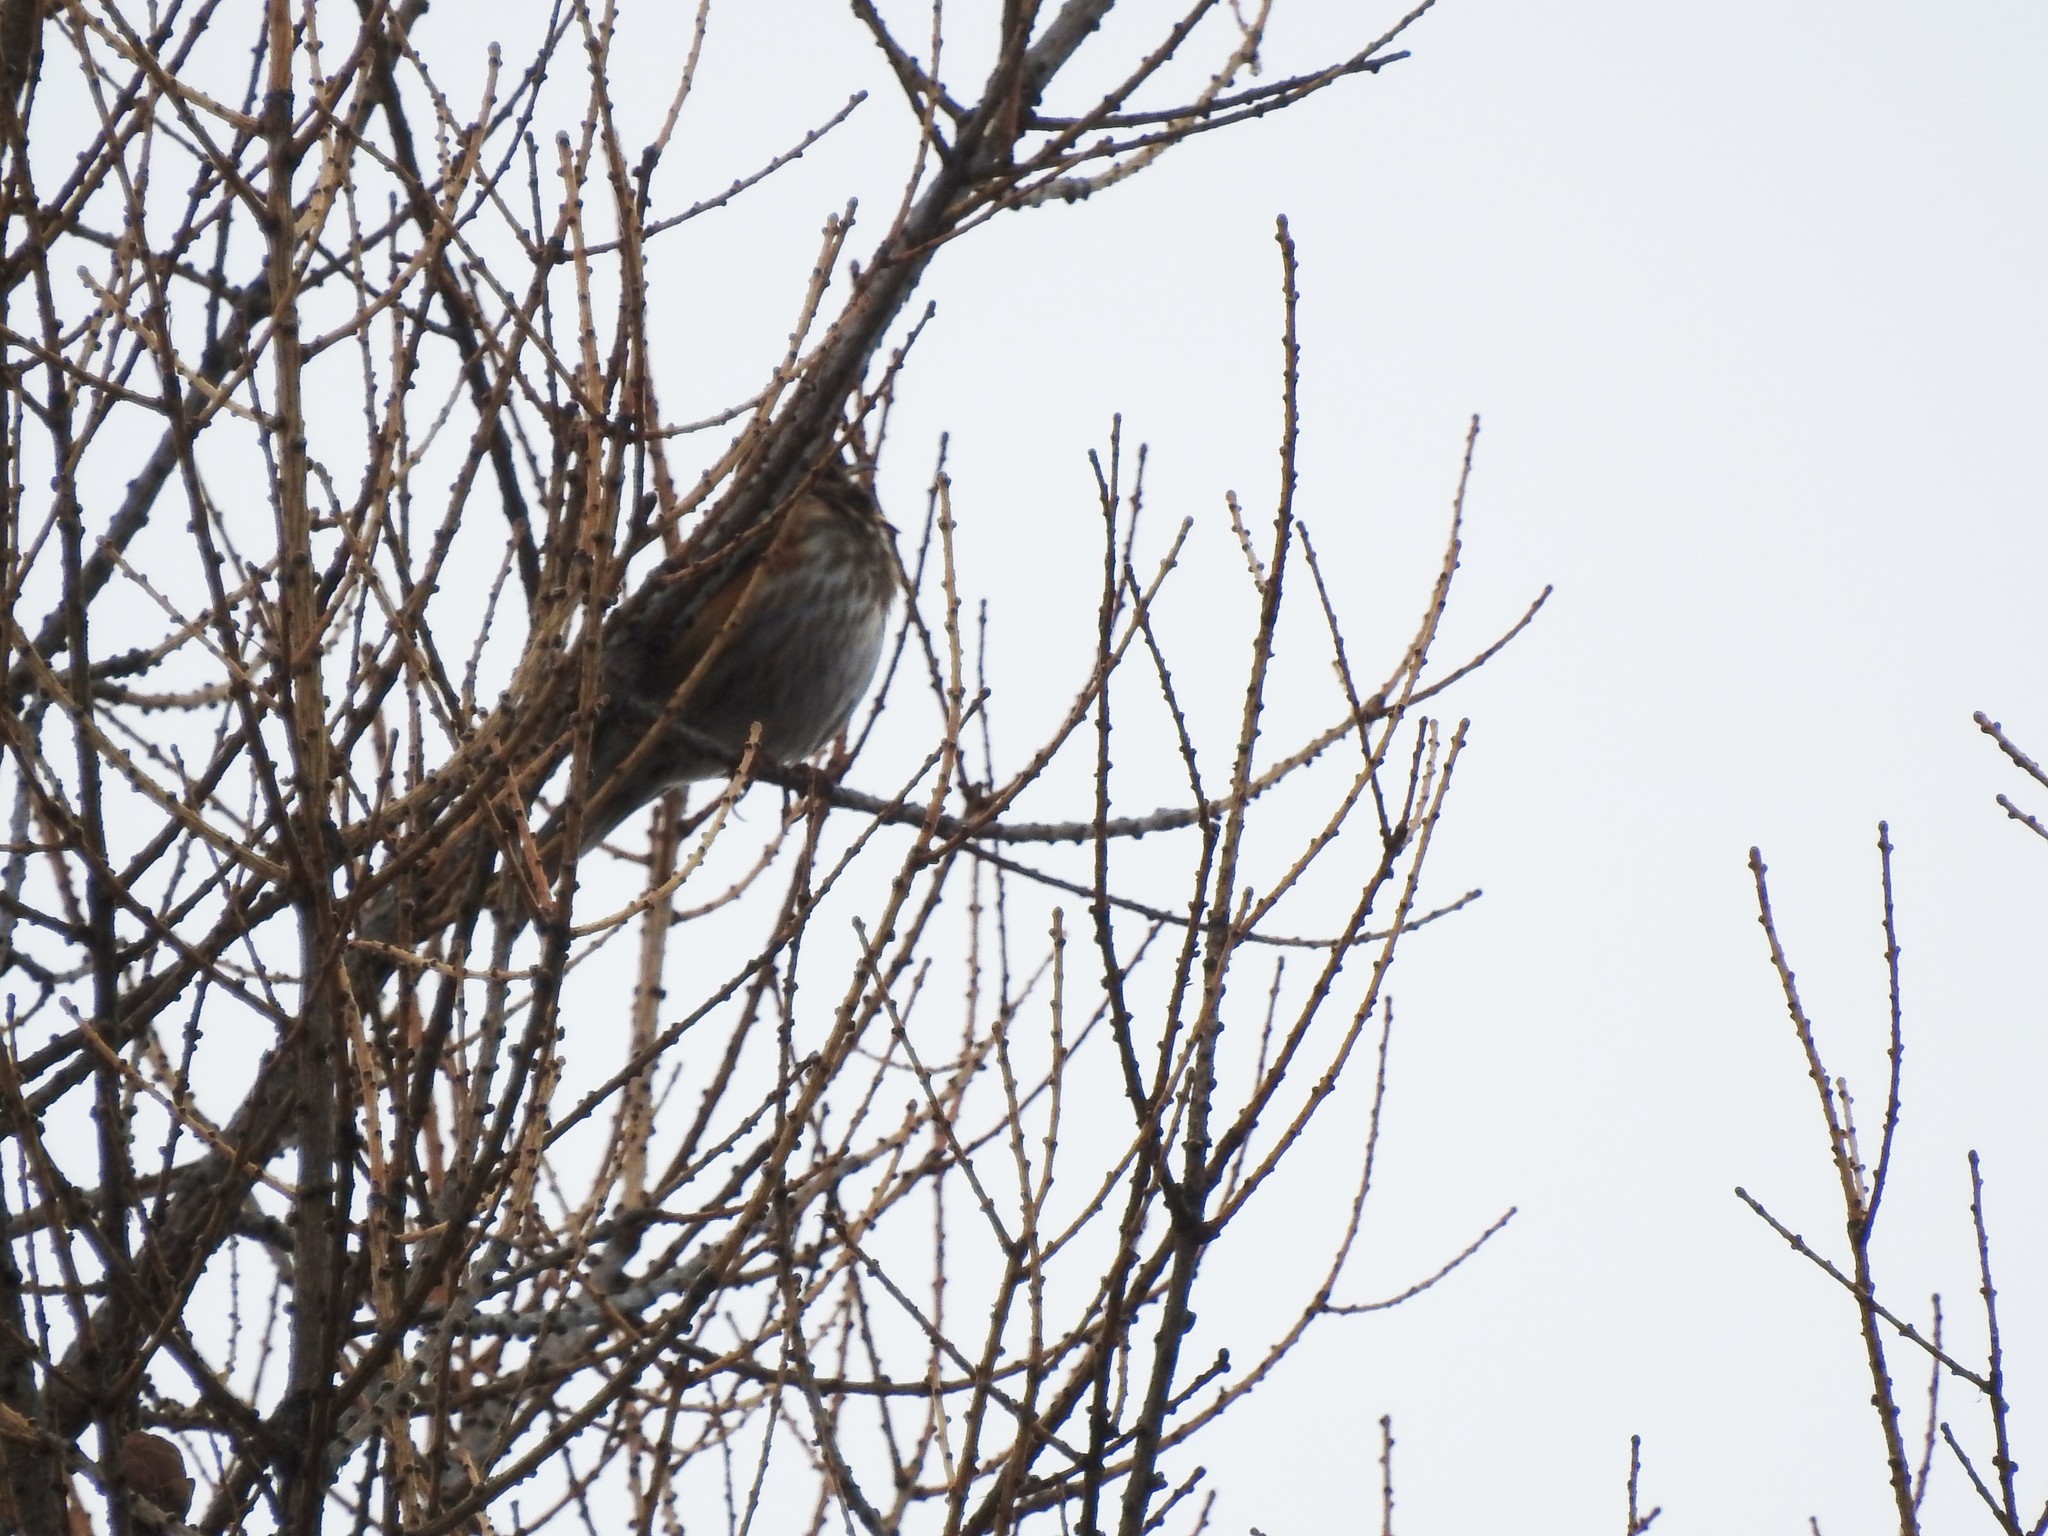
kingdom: Animalia
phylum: Chordata
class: Aves
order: Passeriformes
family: Turdidae
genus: Turdus
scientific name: Turdus iliacus
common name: Redwing
